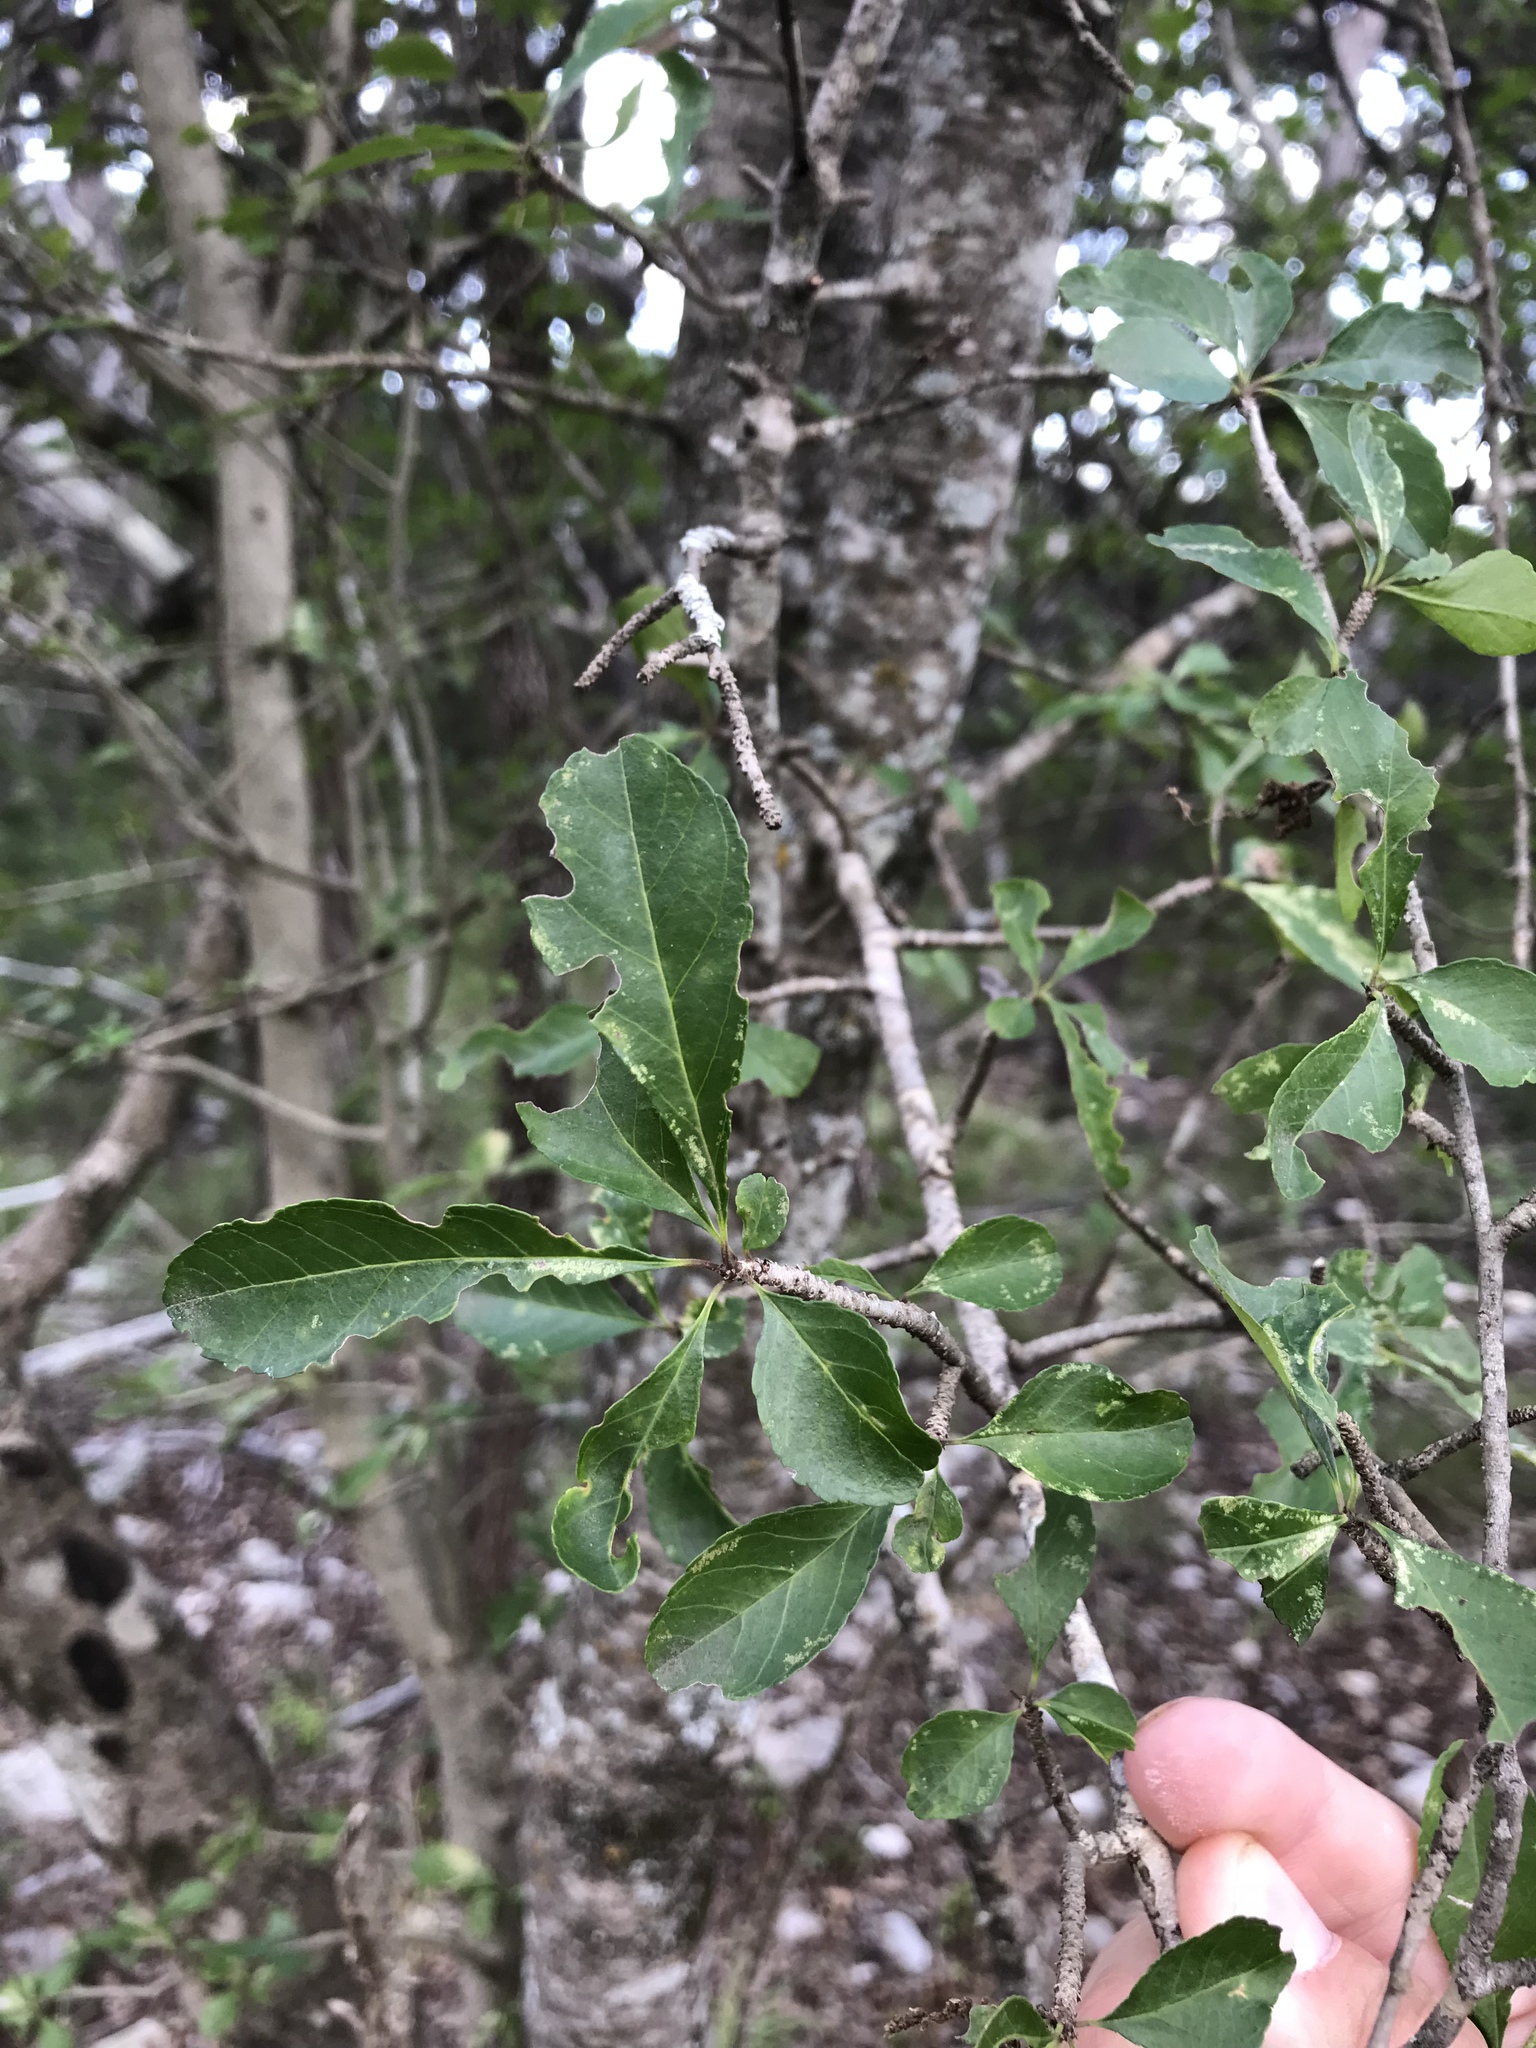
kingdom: Plantae
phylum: Tracheophyta
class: Magnoliopsida
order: Aquifoliales
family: Aquifoliaceae
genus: Ilex
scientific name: Ilex decidua
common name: Possum-haw
